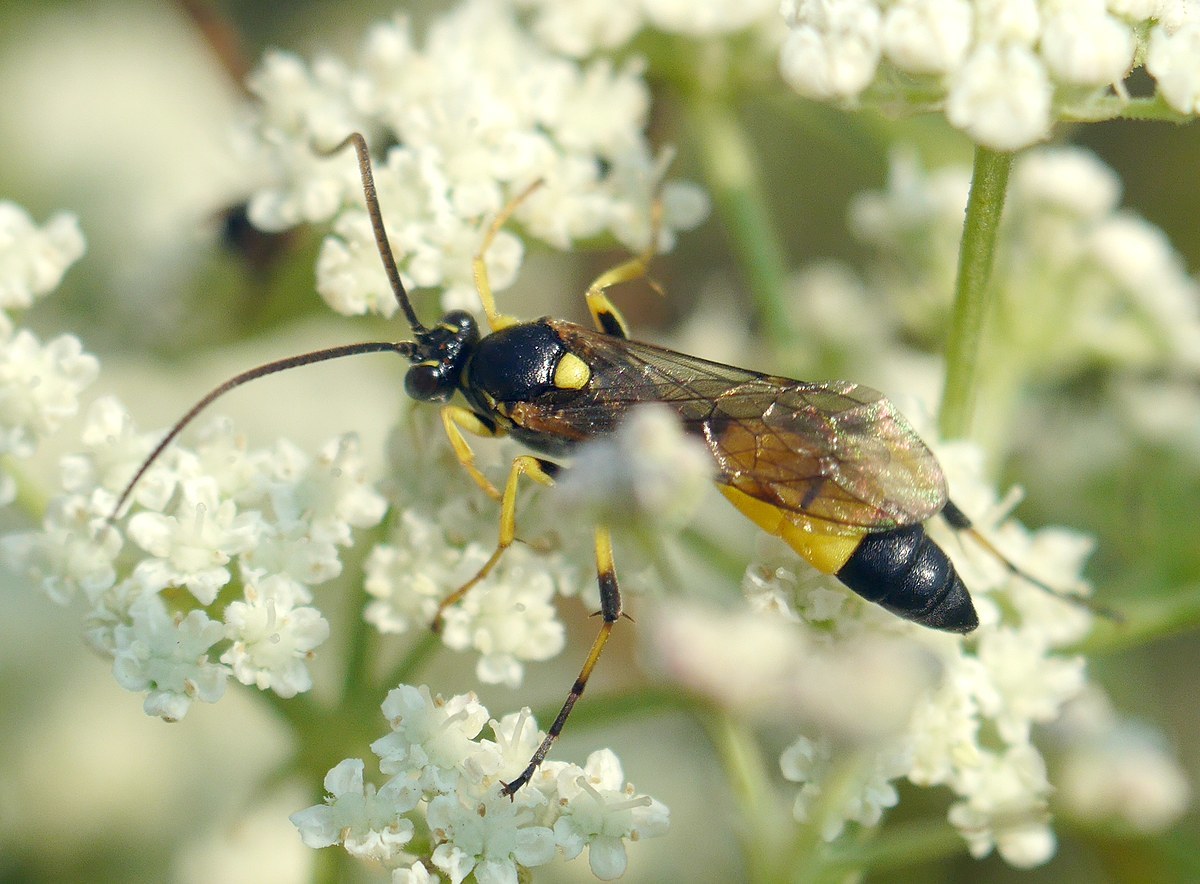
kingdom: Animalia
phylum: Arthropoda
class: Insecta
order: Hymenoptera
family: Ichneumonidae
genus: Spilothyrateles
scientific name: Spilothyrateles illuminatorius
